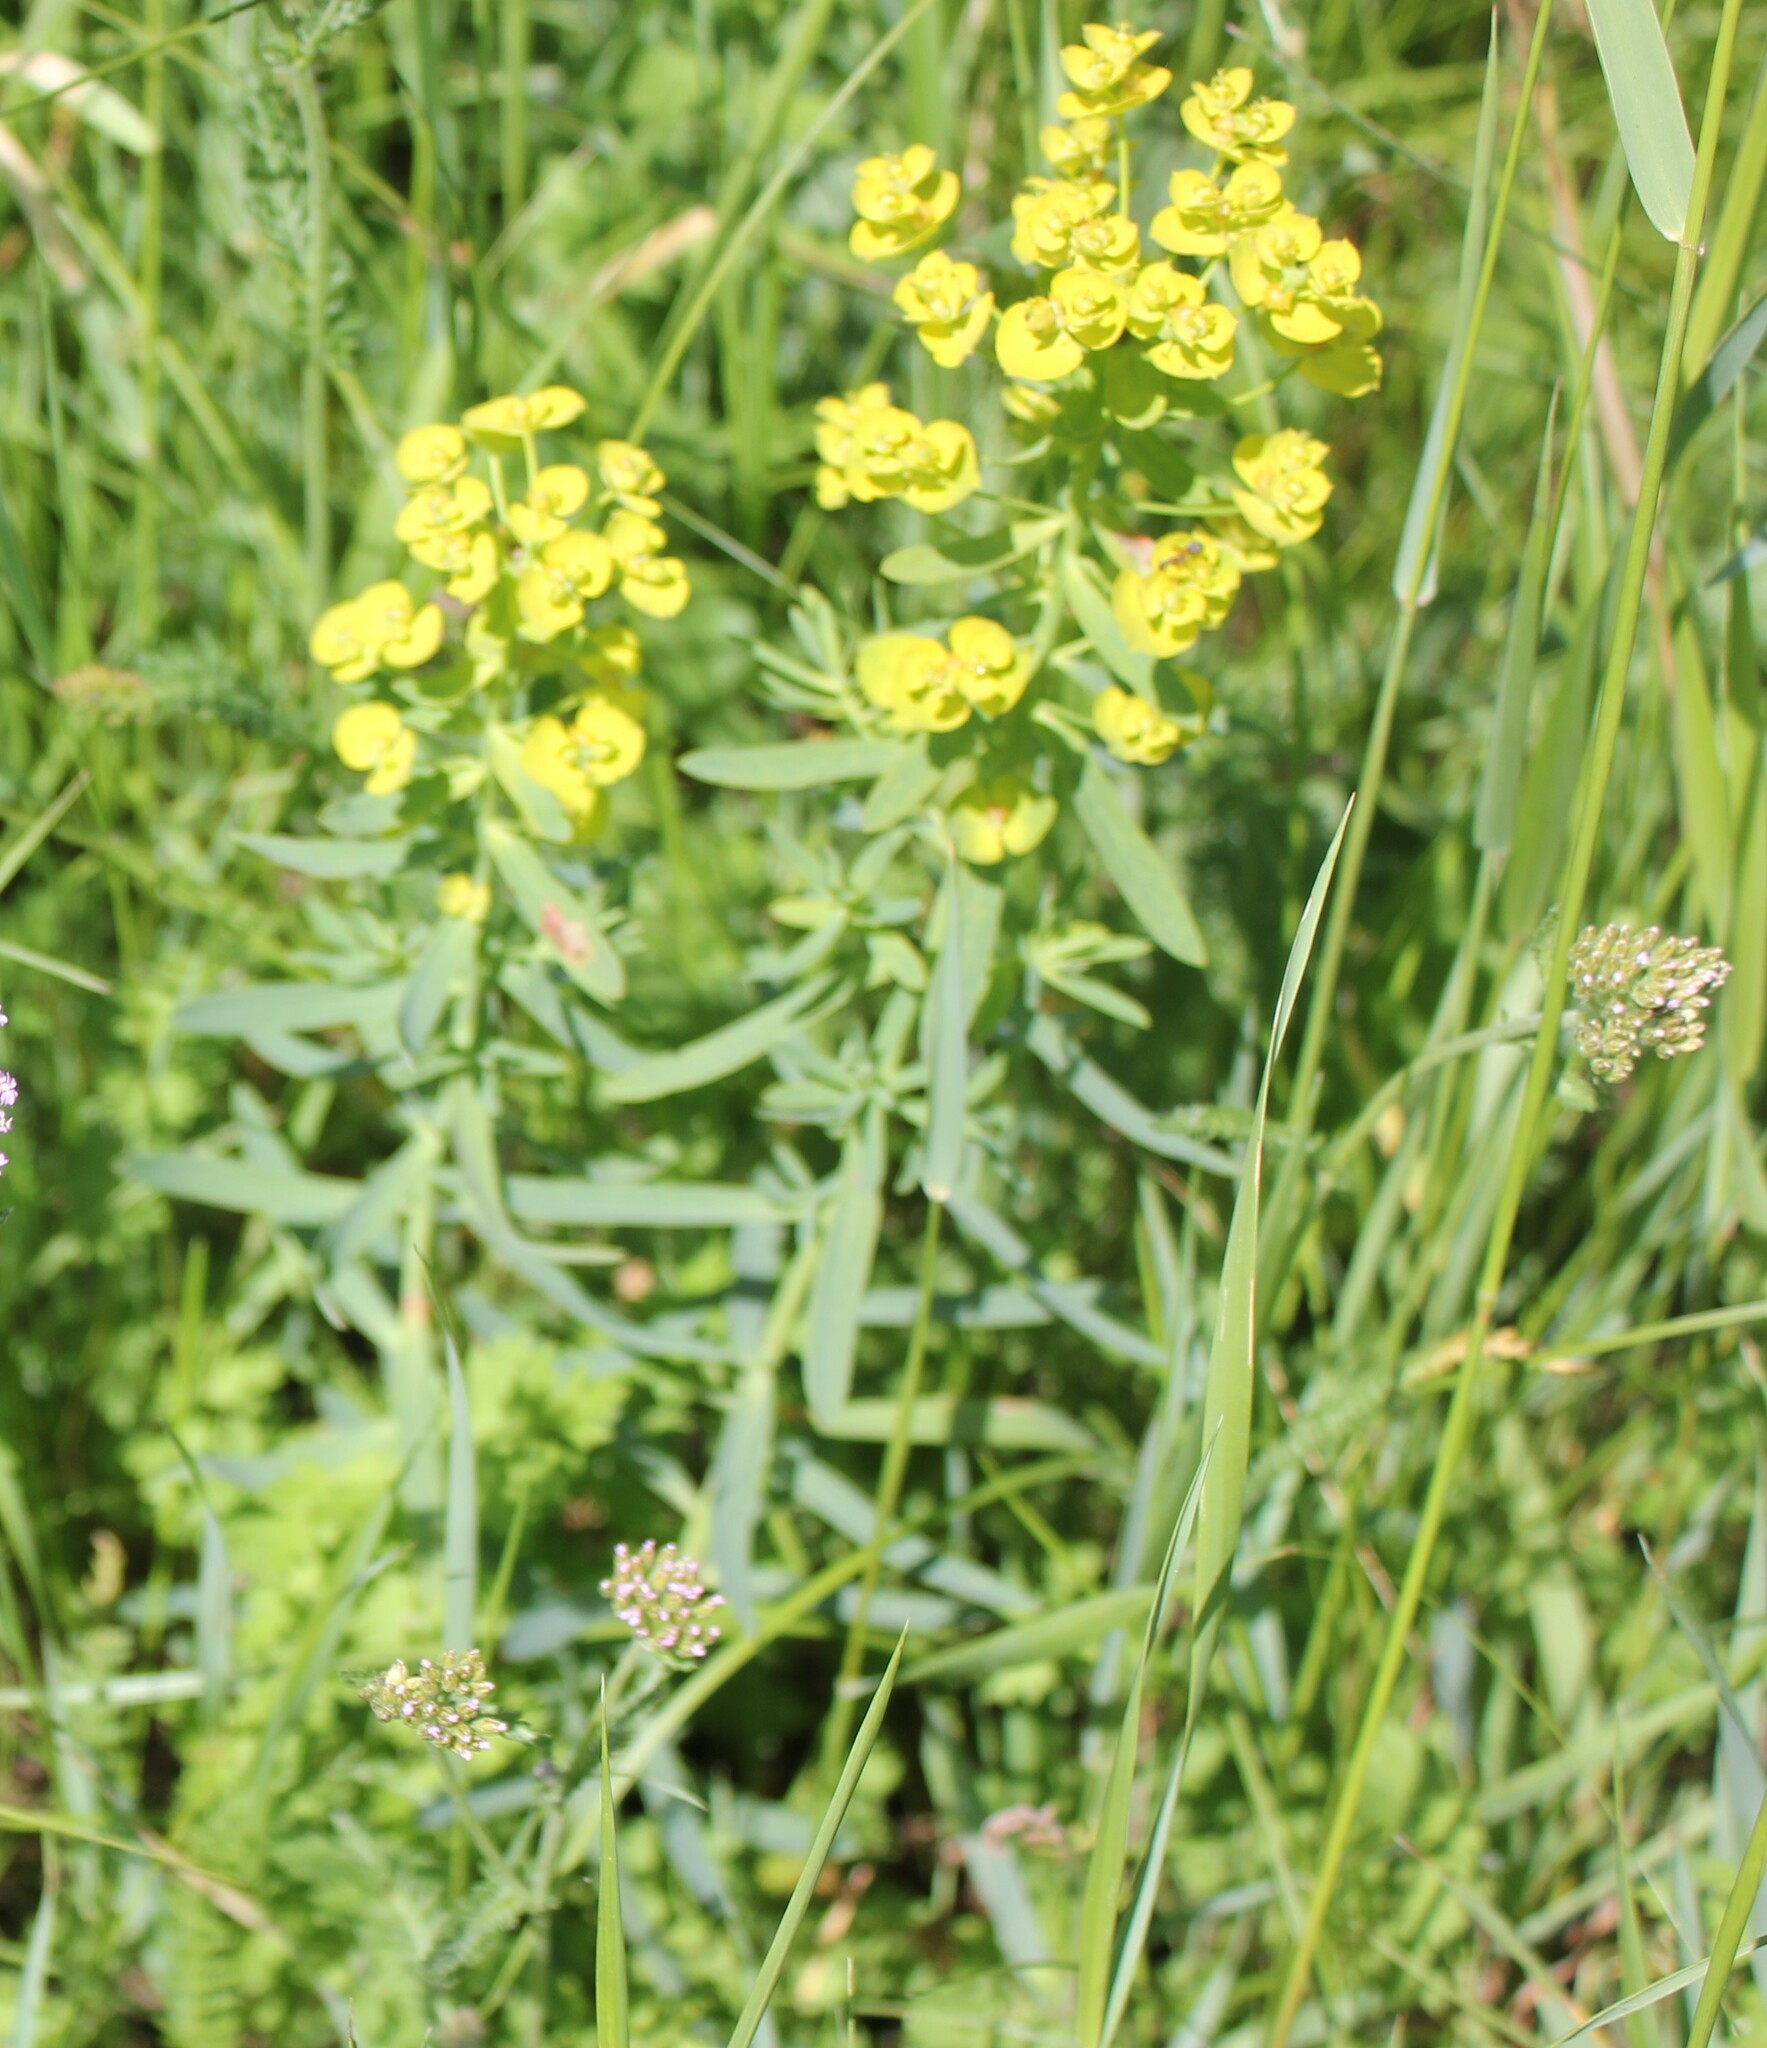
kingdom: Plantae
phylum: Tracheophyta
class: Magnoliopsida
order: Malpighiales
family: Euphorbiaceae
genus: Euphorbia
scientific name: Euphorbia virgata
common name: Leafy spurge
